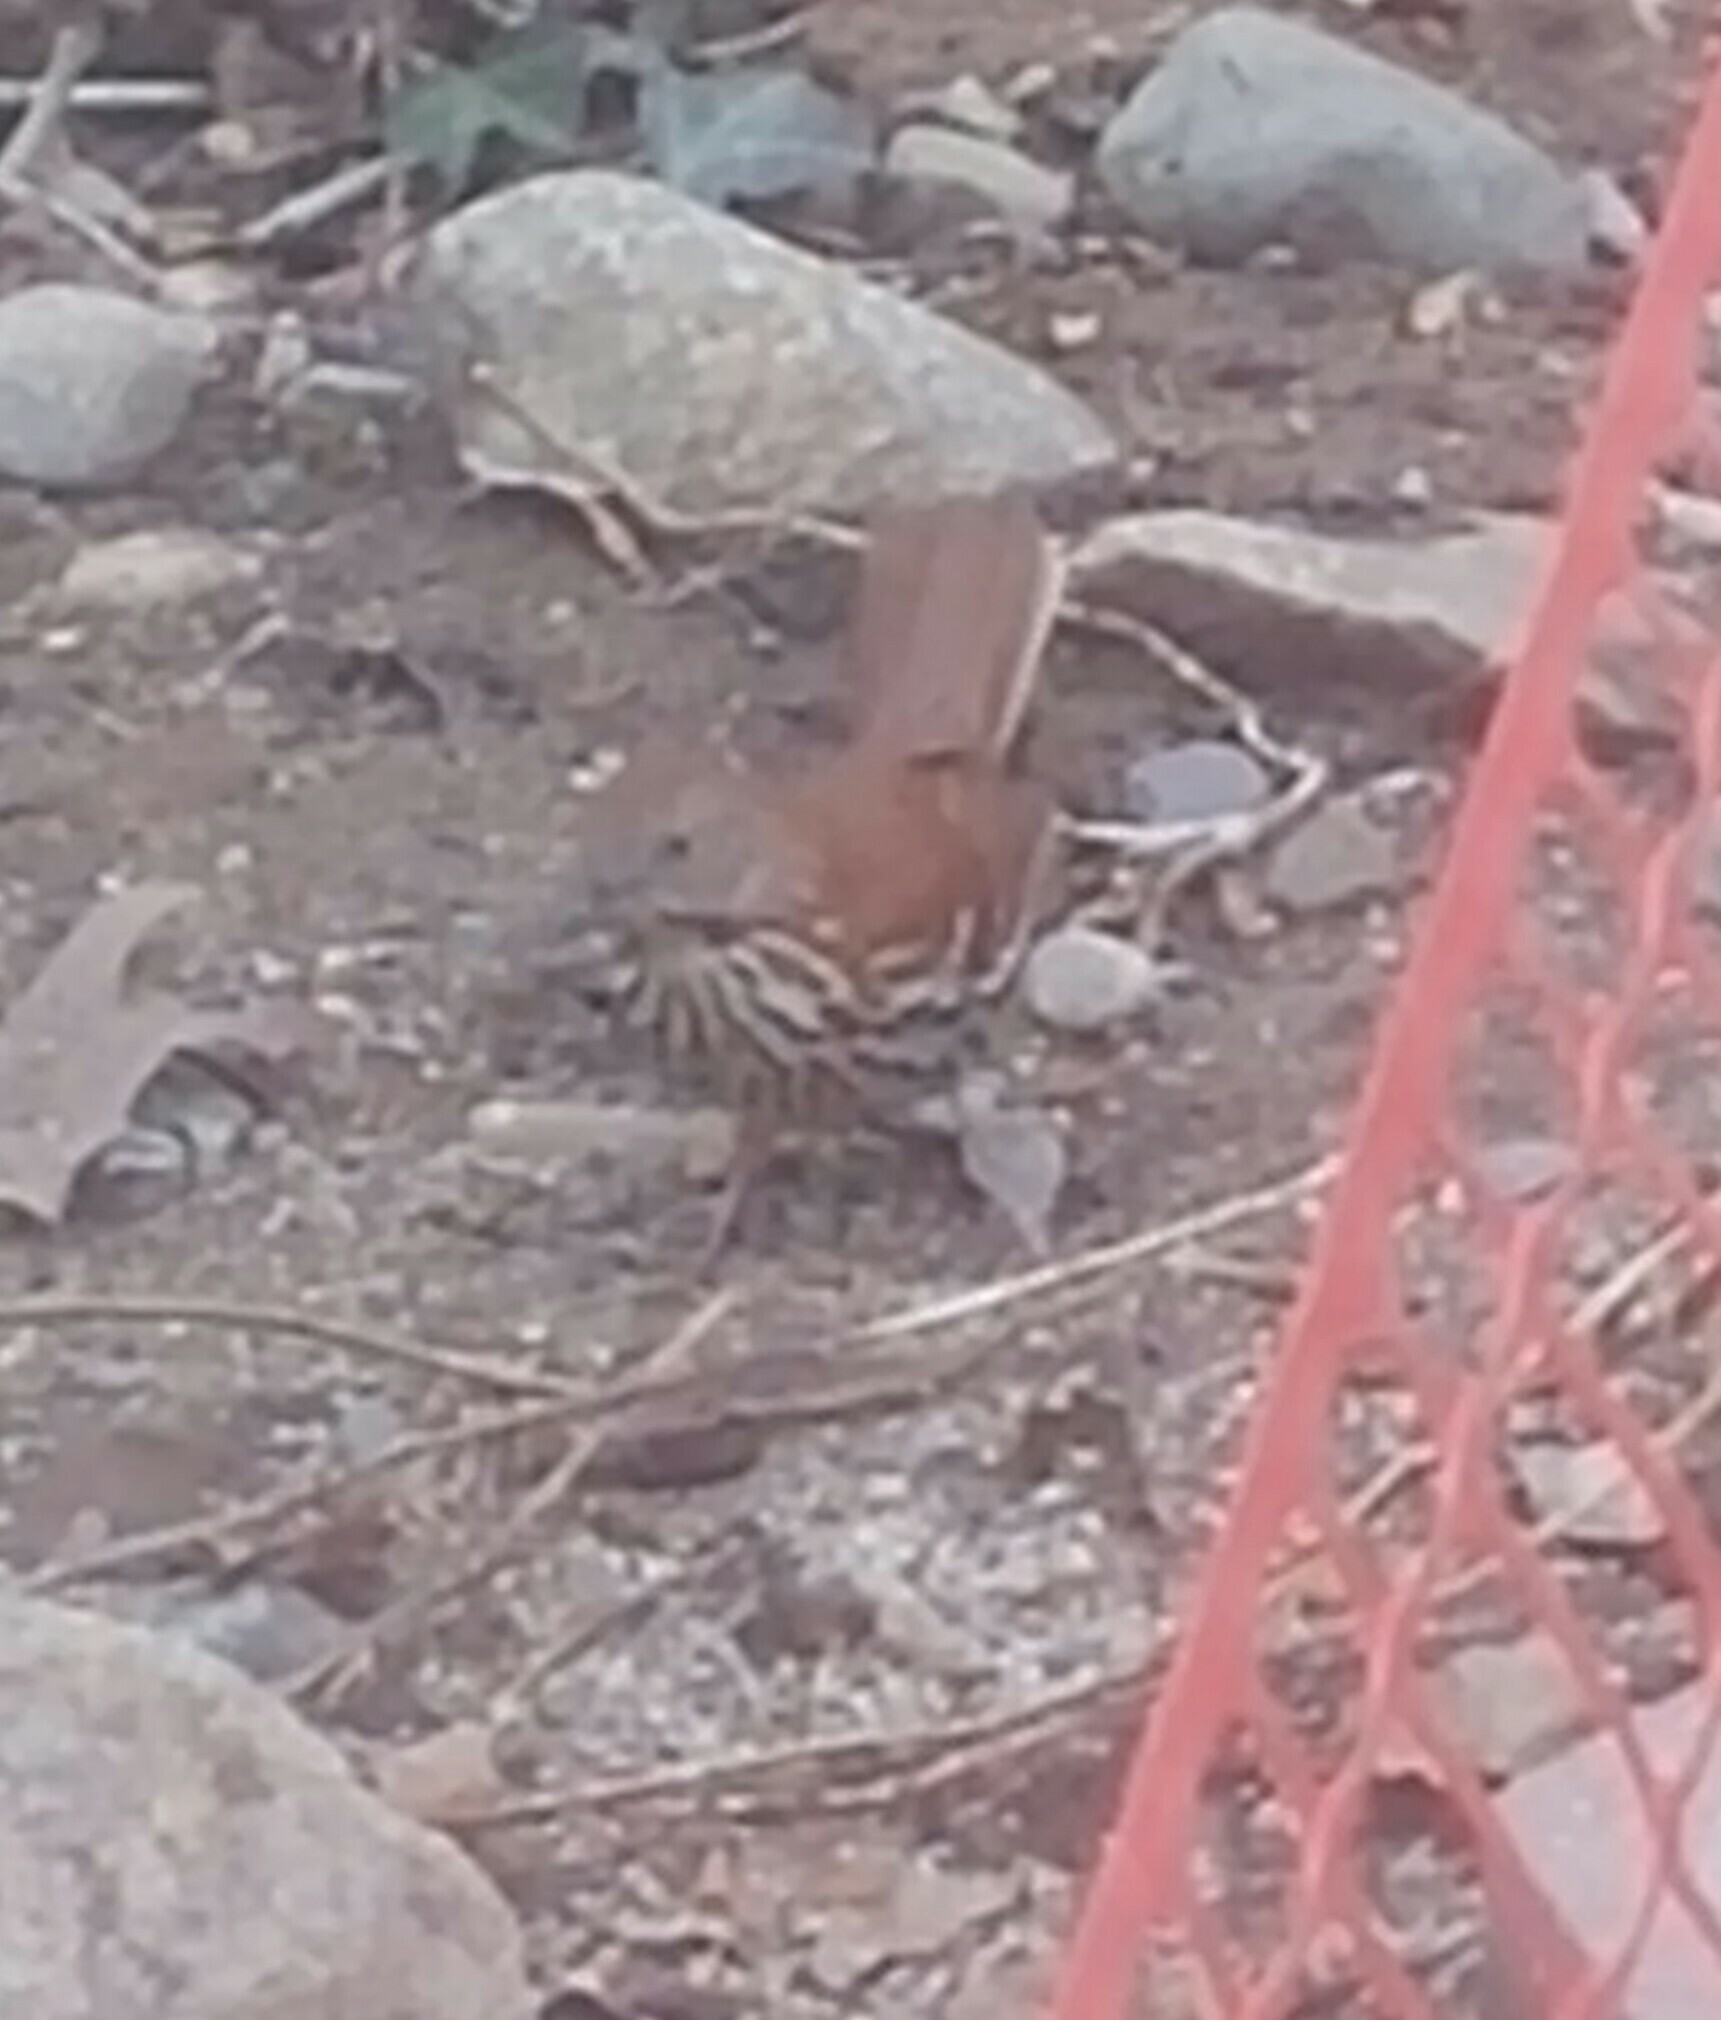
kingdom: Animalia
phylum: Chordata
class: Aves
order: Passeriformes
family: Mimidae
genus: Toxostoma
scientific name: Toxostoma rufum
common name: Brown thrasher
